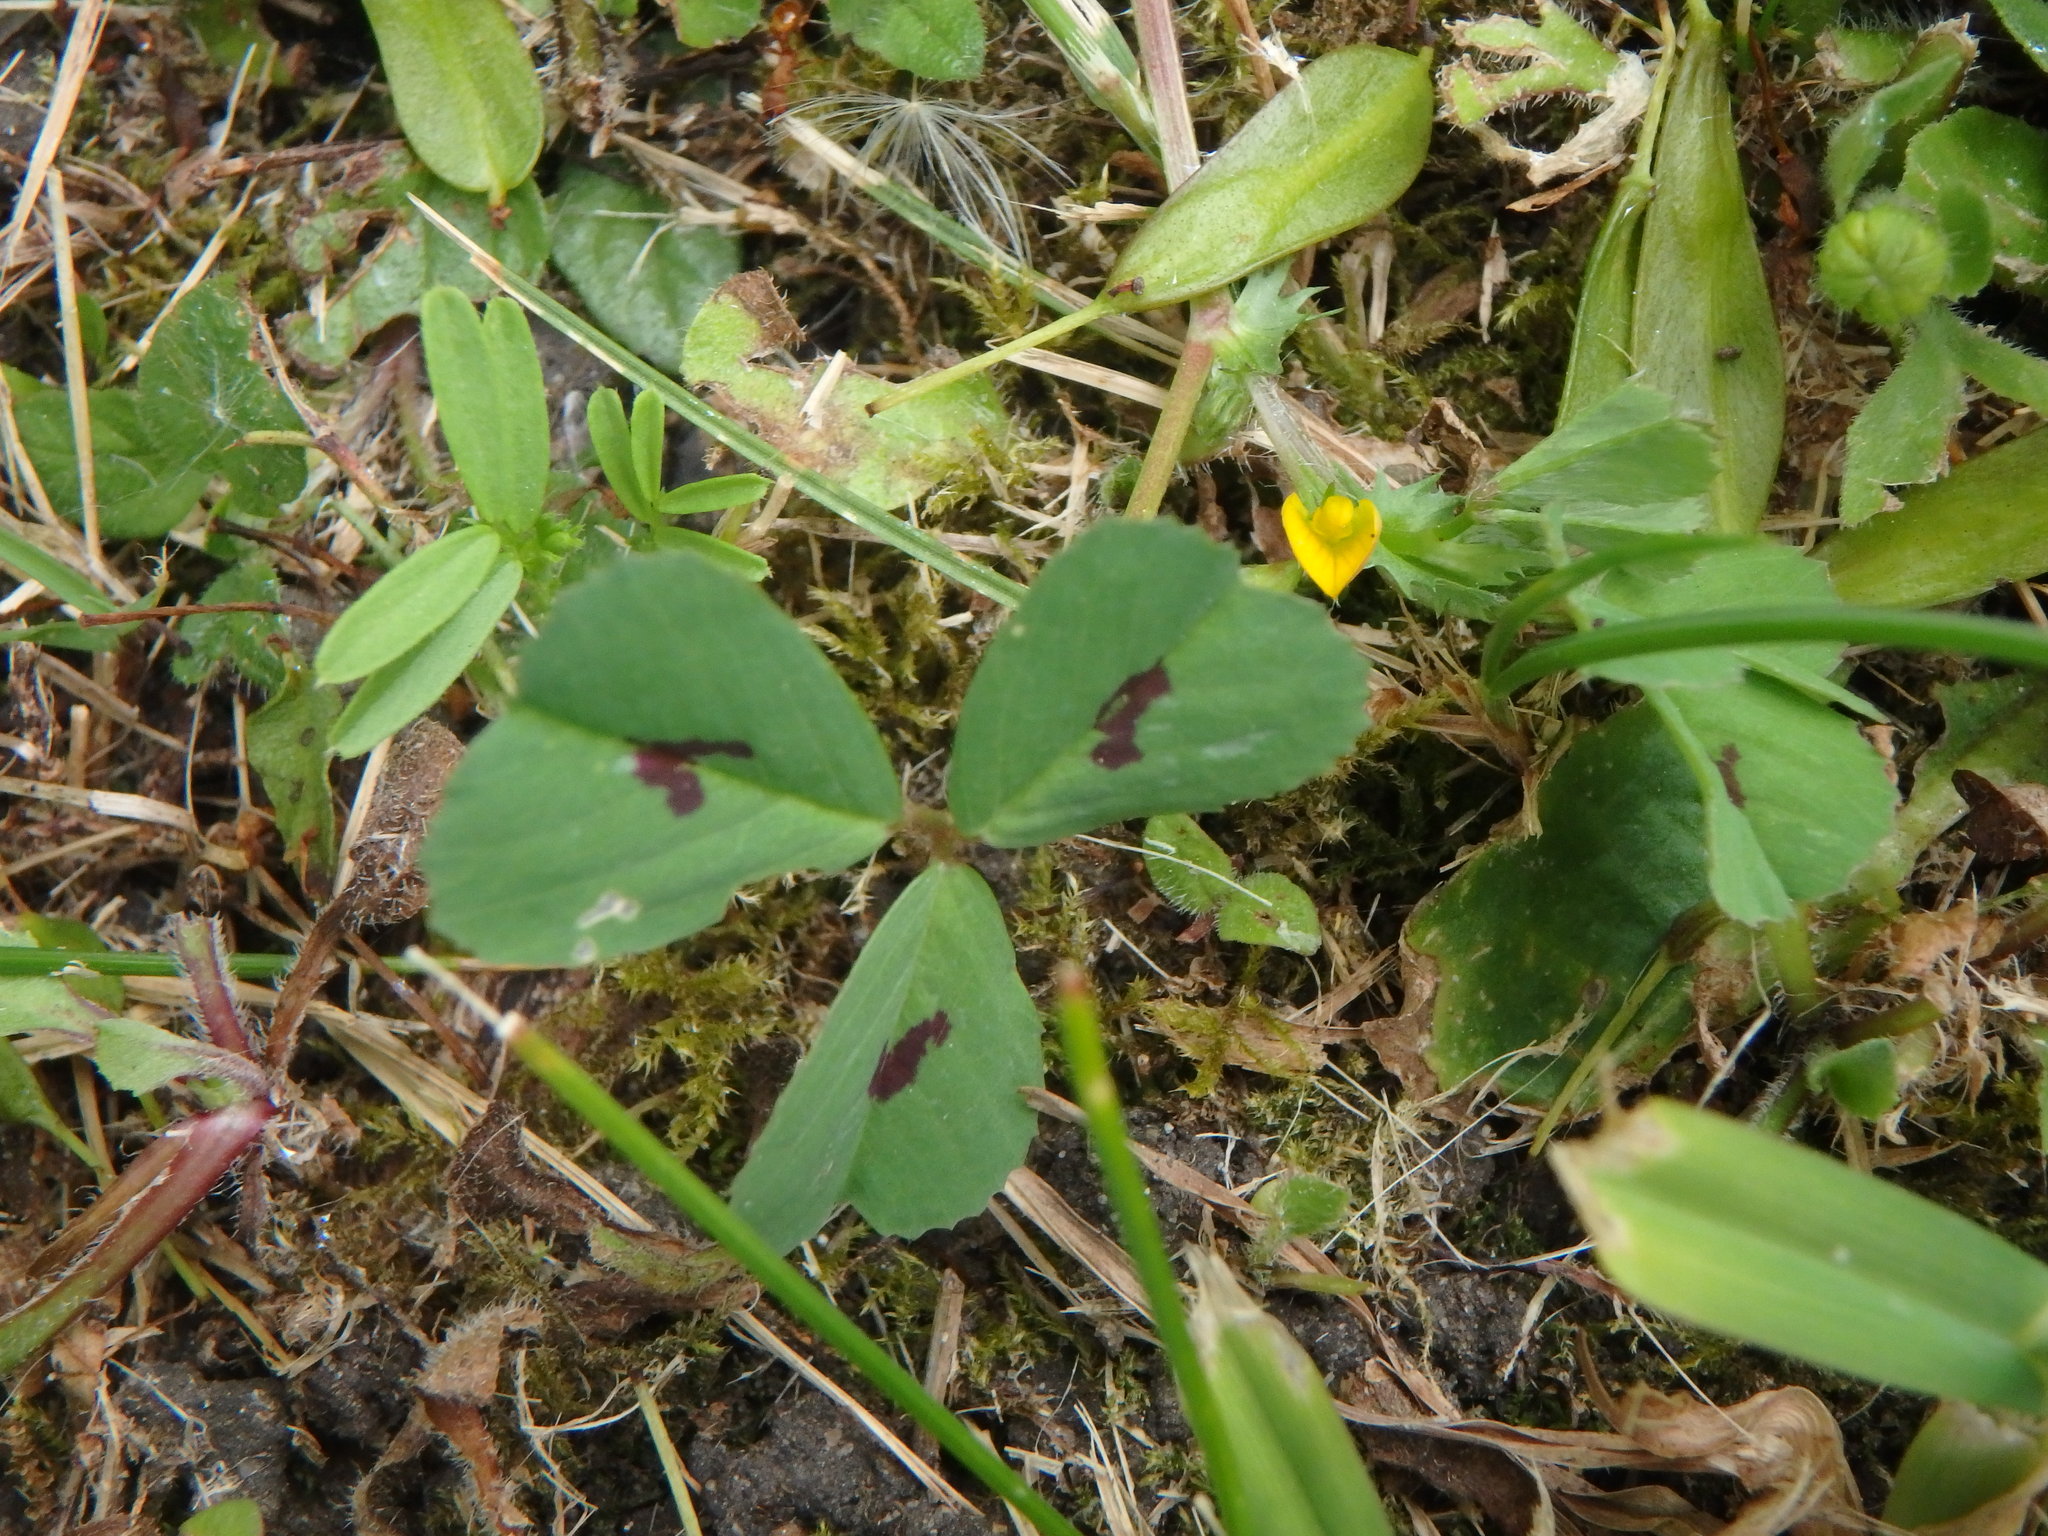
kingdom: Plantae
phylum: Tracheophyta
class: Magnoliopsida
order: Fabales
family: Fabaceae
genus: Medicago
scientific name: Medicago arabica
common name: Spotted medick
